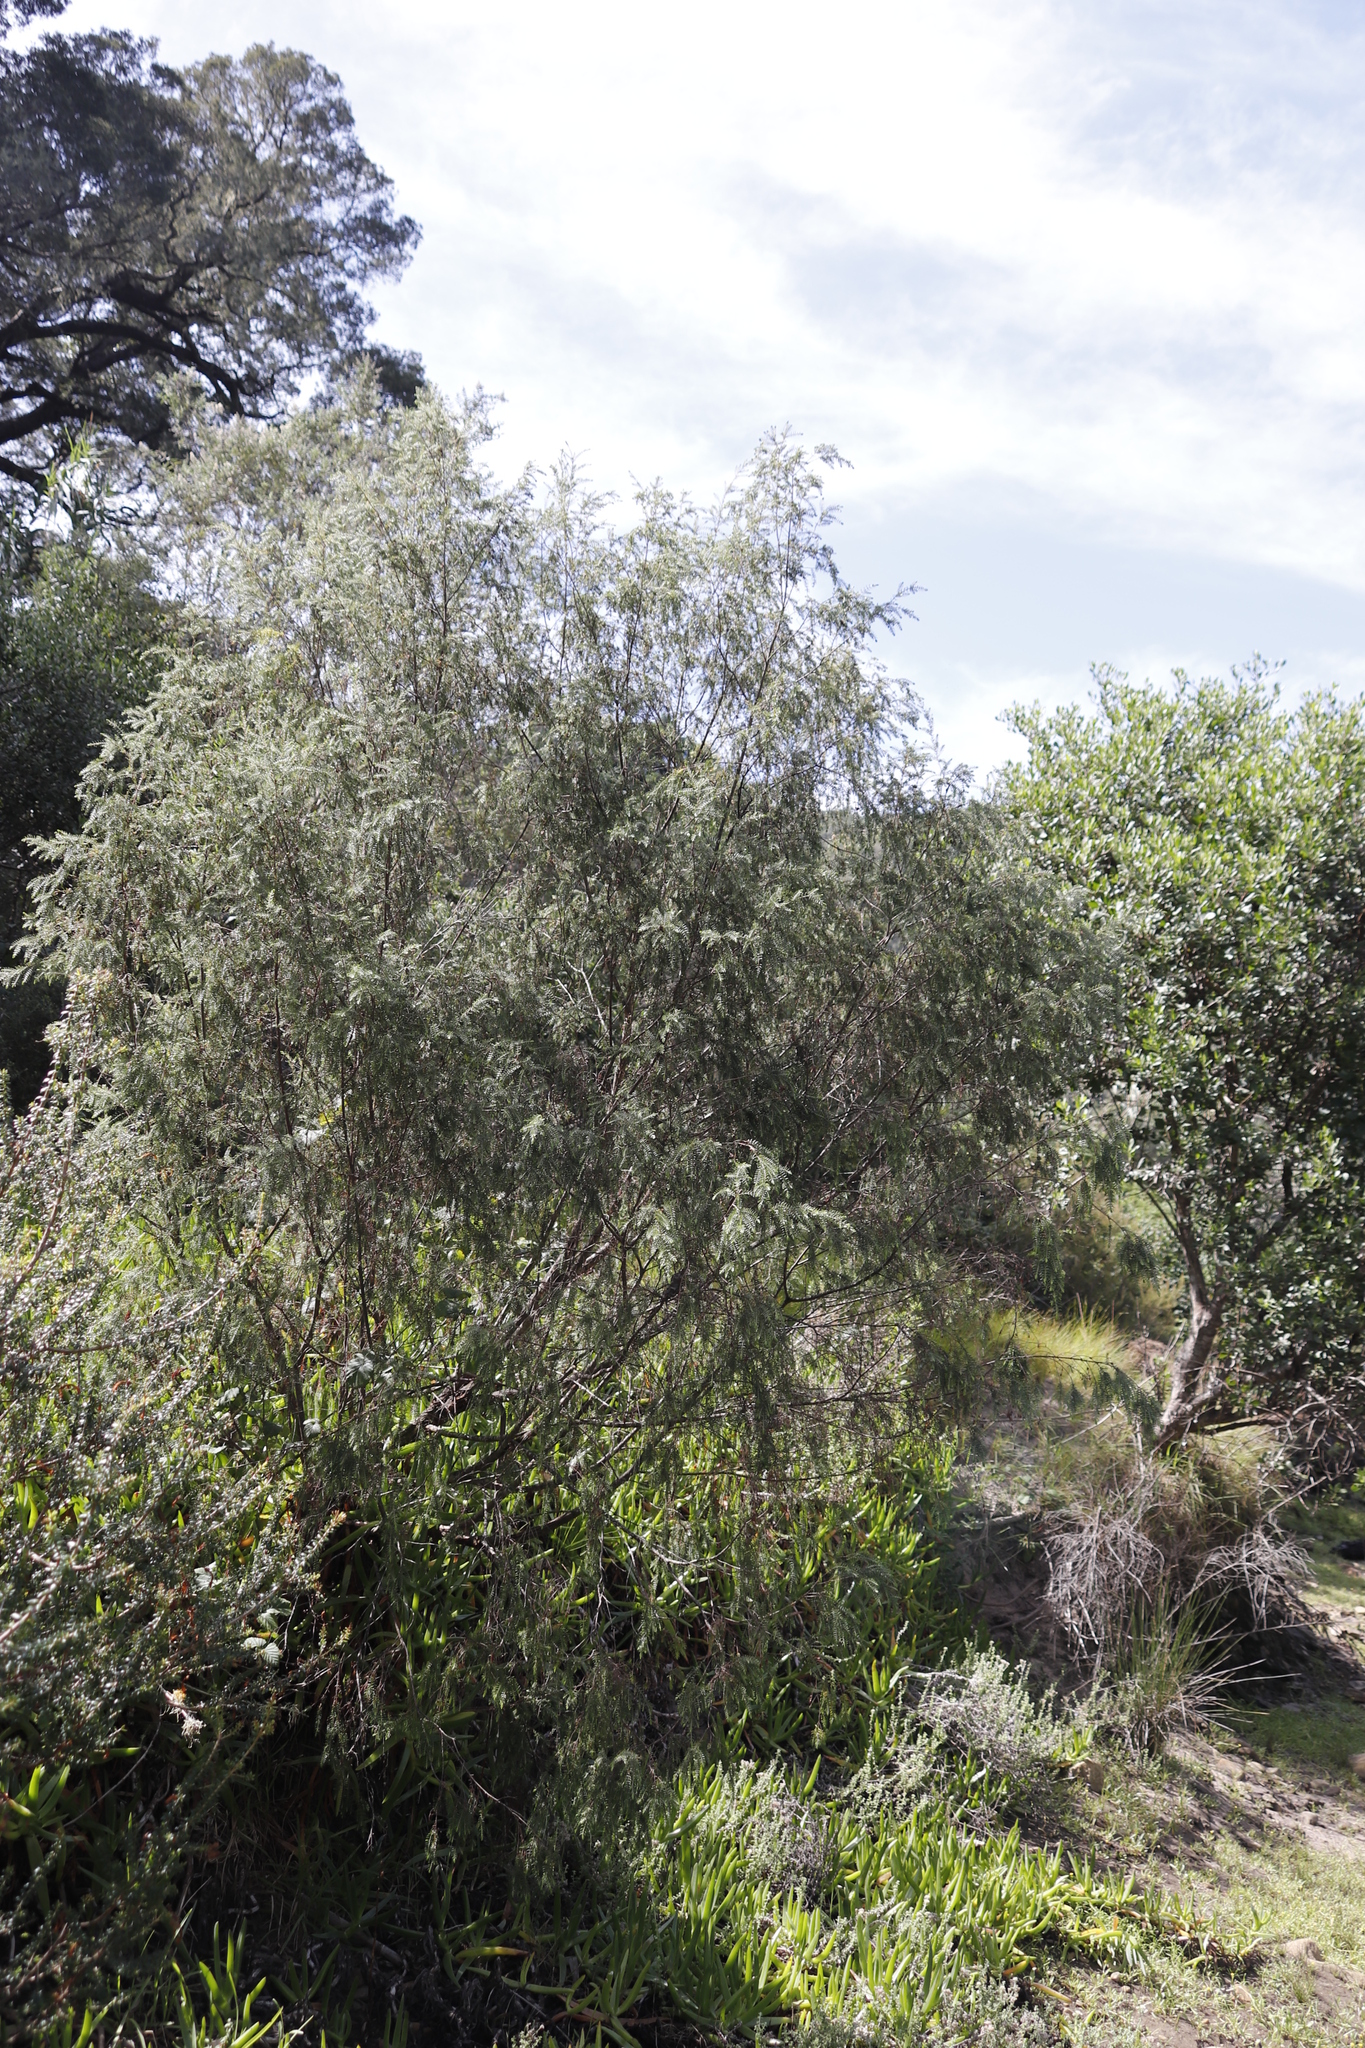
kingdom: Plantae
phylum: Tracheophyta
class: Magnoliopsida
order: Malvales
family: Thymelaeaceae
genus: Passerina
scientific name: Passerina falcifolia
